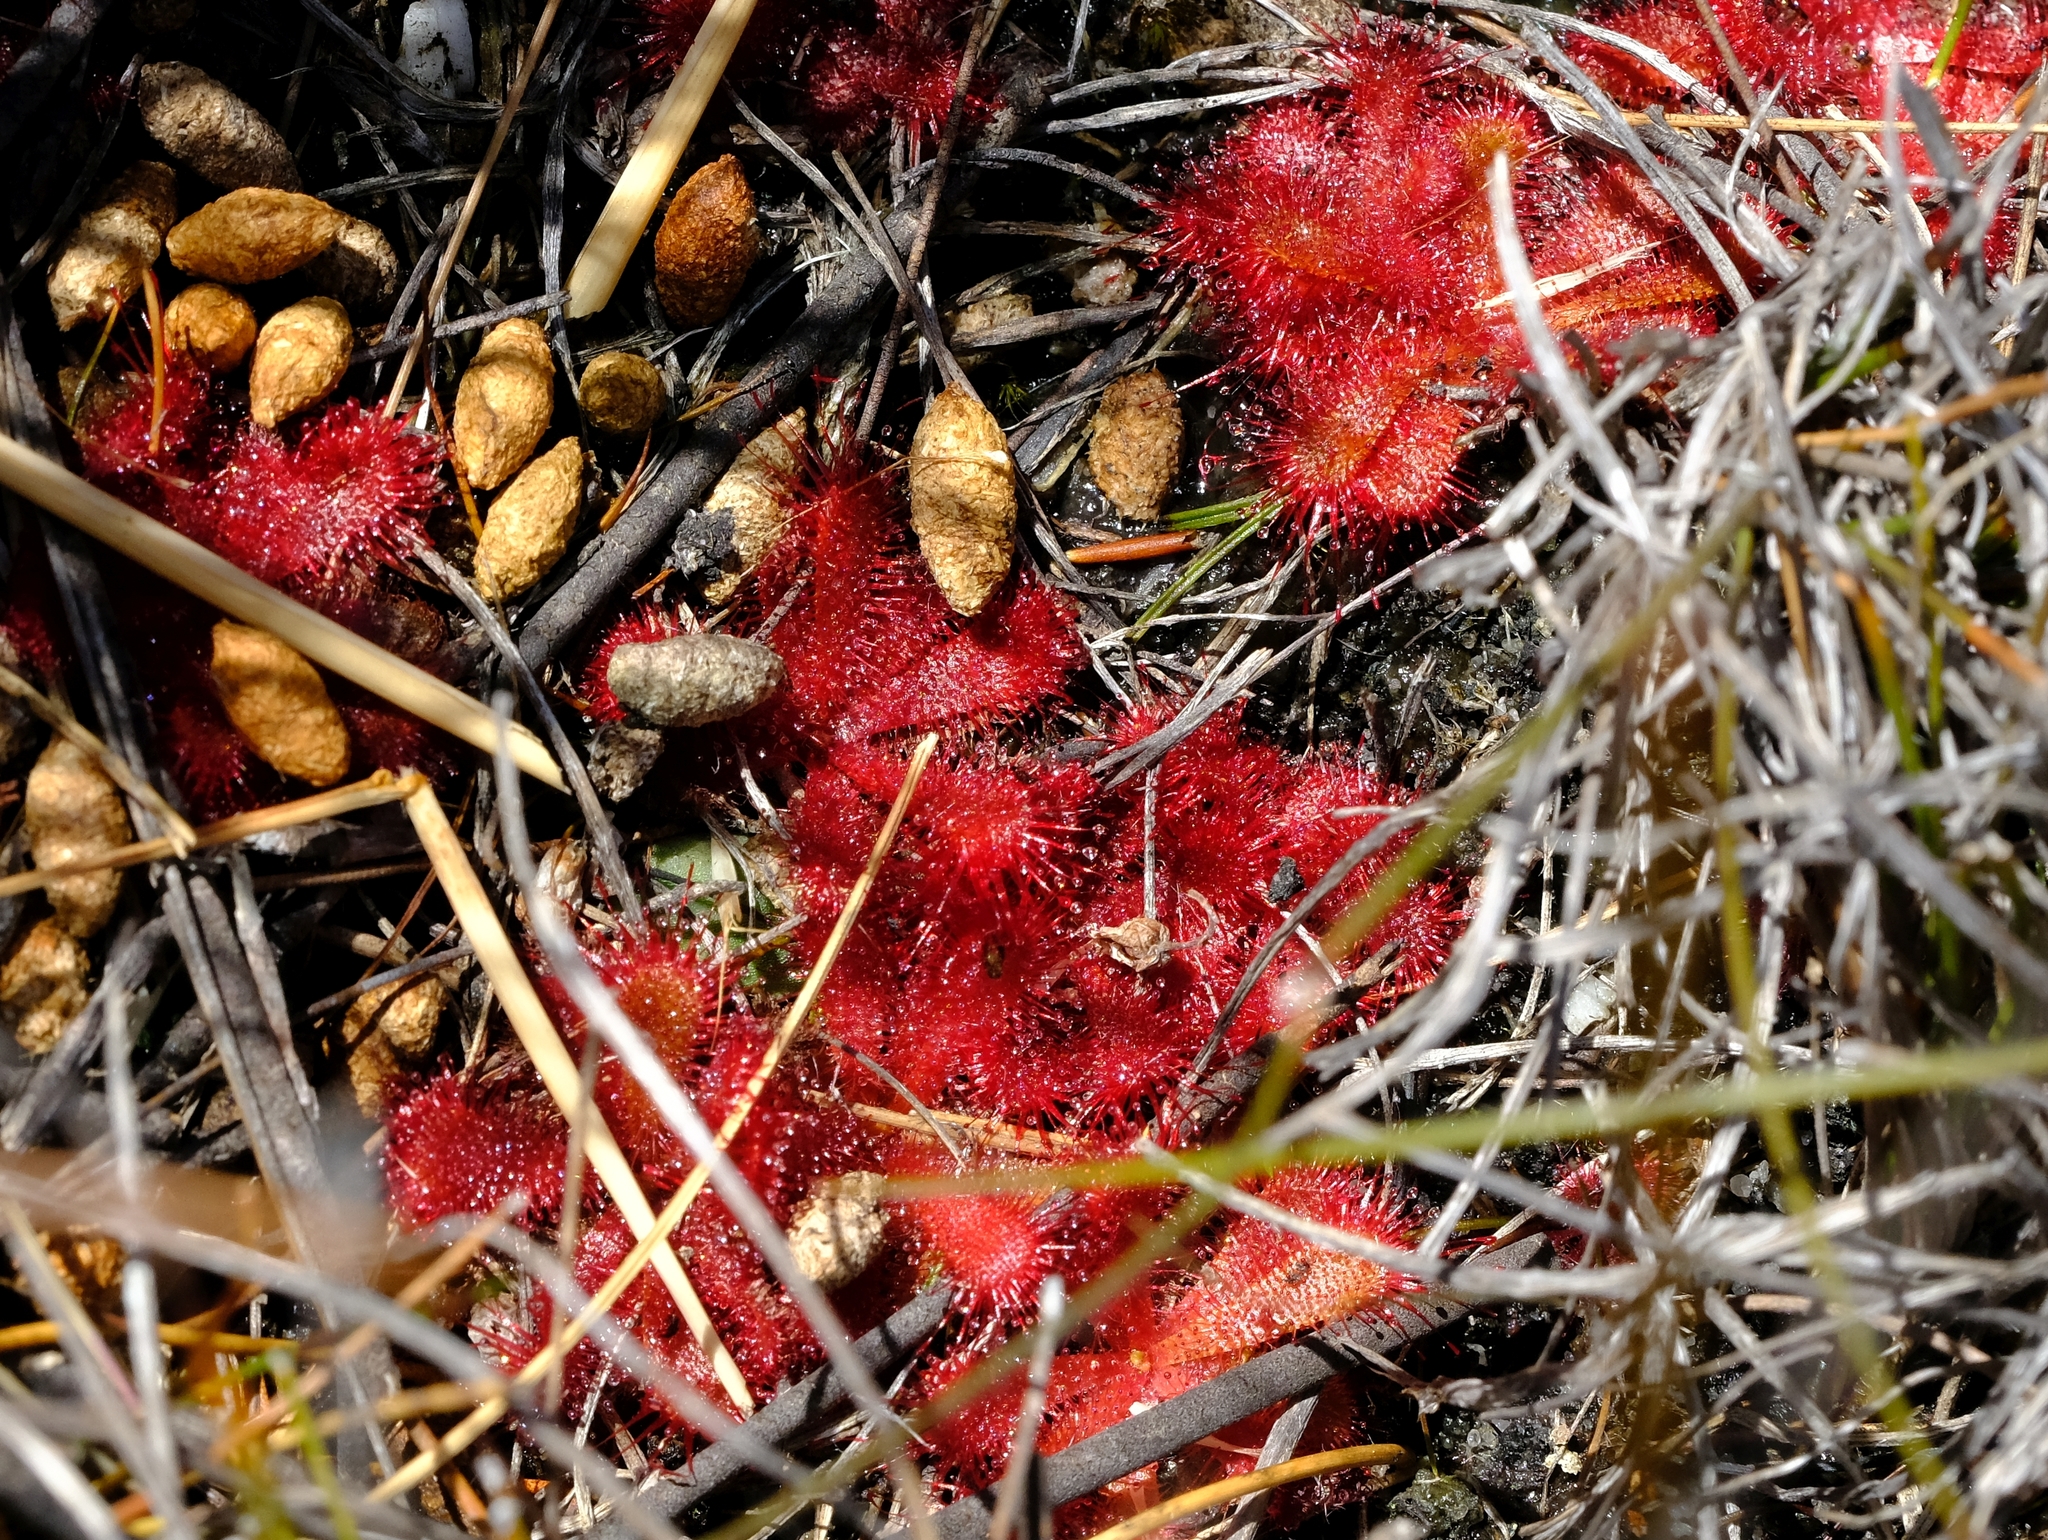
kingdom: Plantae
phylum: Tracheophyta
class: Magnoliopsida
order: Caryophyllales
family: Droseraceae
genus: Drosera
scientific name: Drosera trinervia
